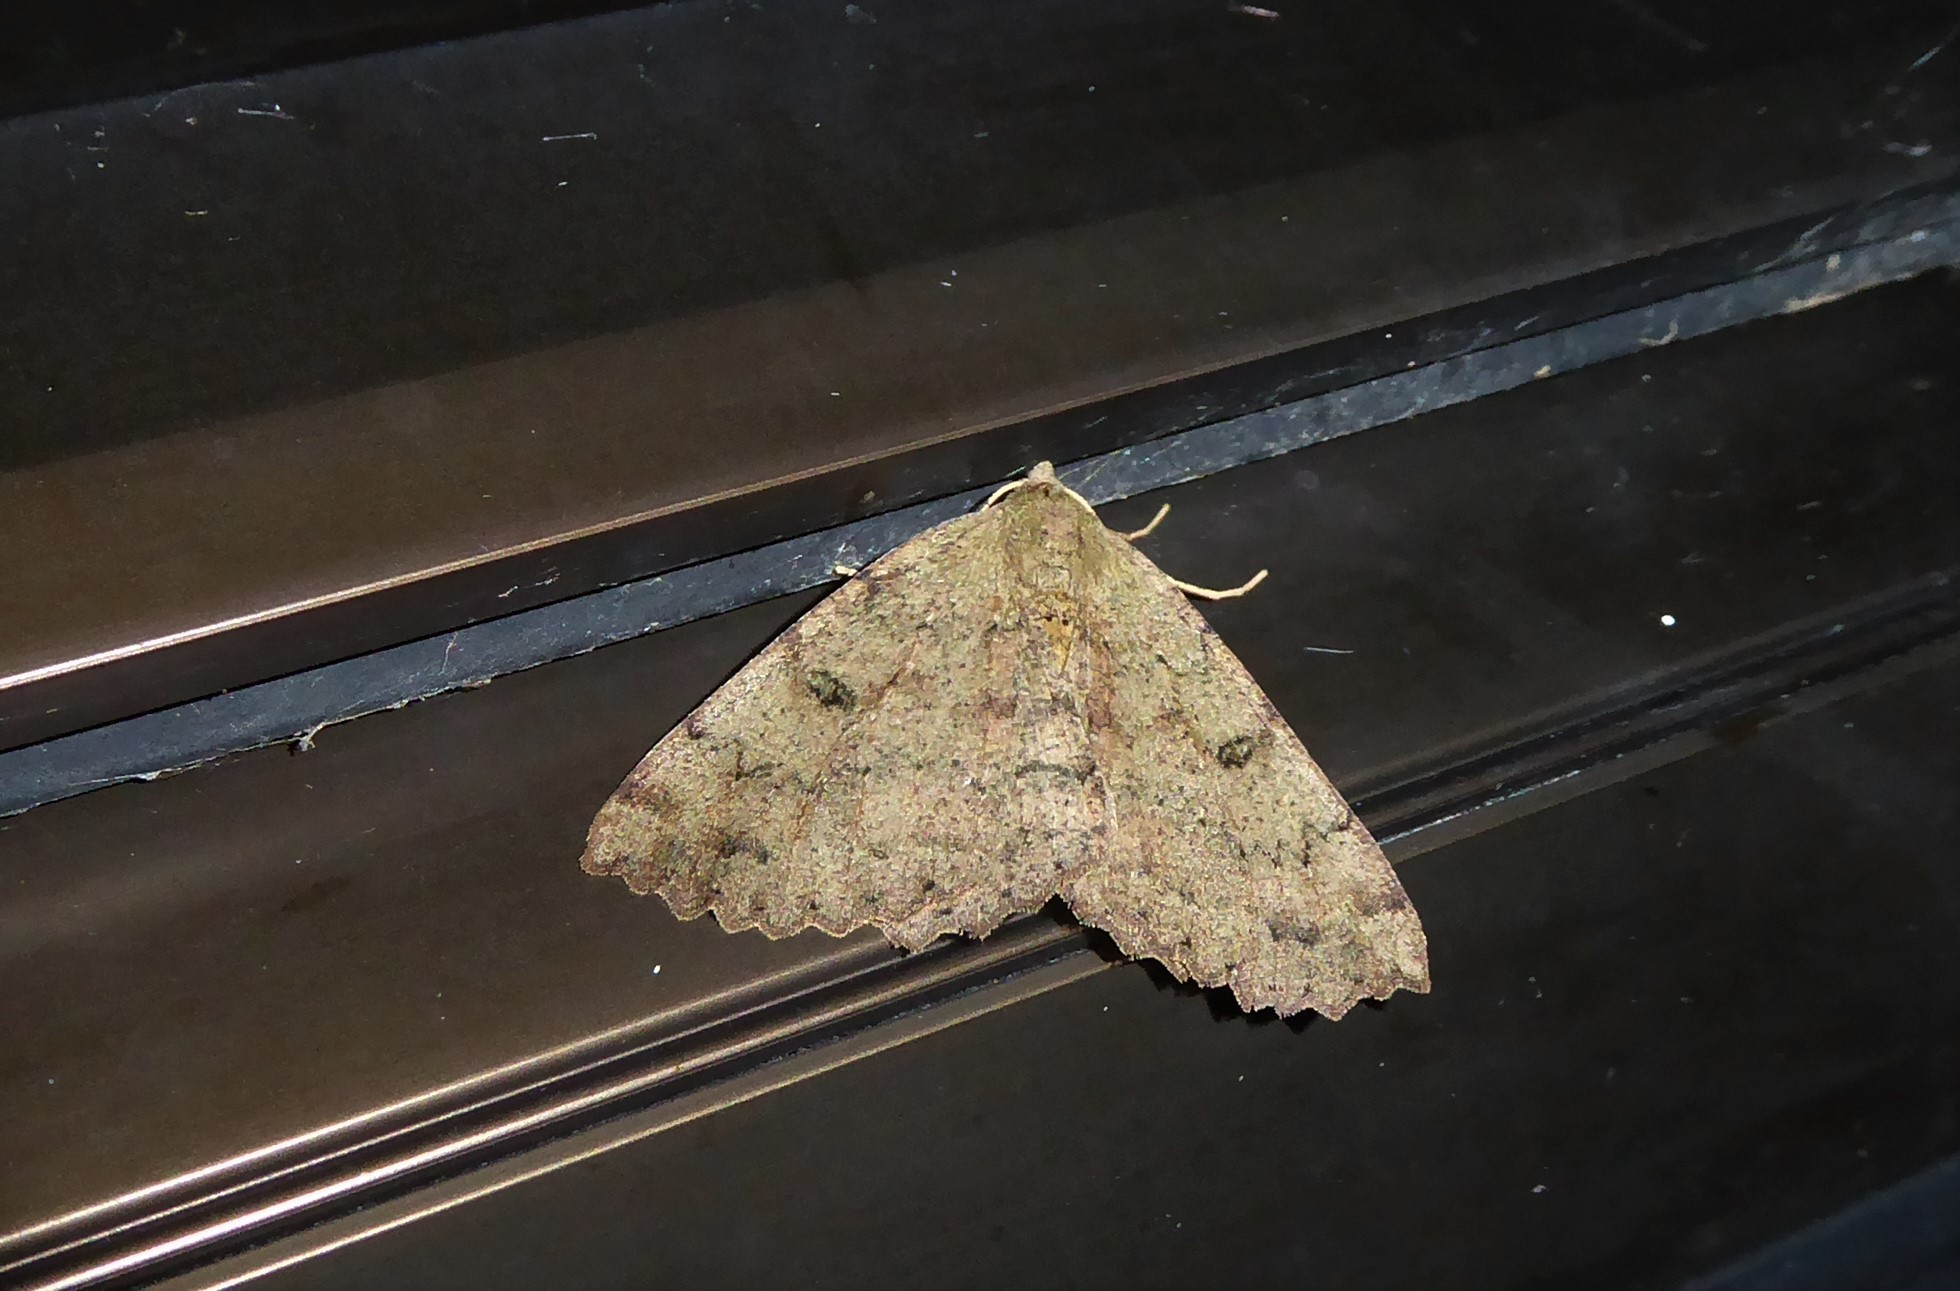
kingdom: Animalia
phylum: Arthropoda
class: Insecta
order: Lepidoptera
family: Geometridae
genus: Cleora
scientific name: Cleora scriptaria
